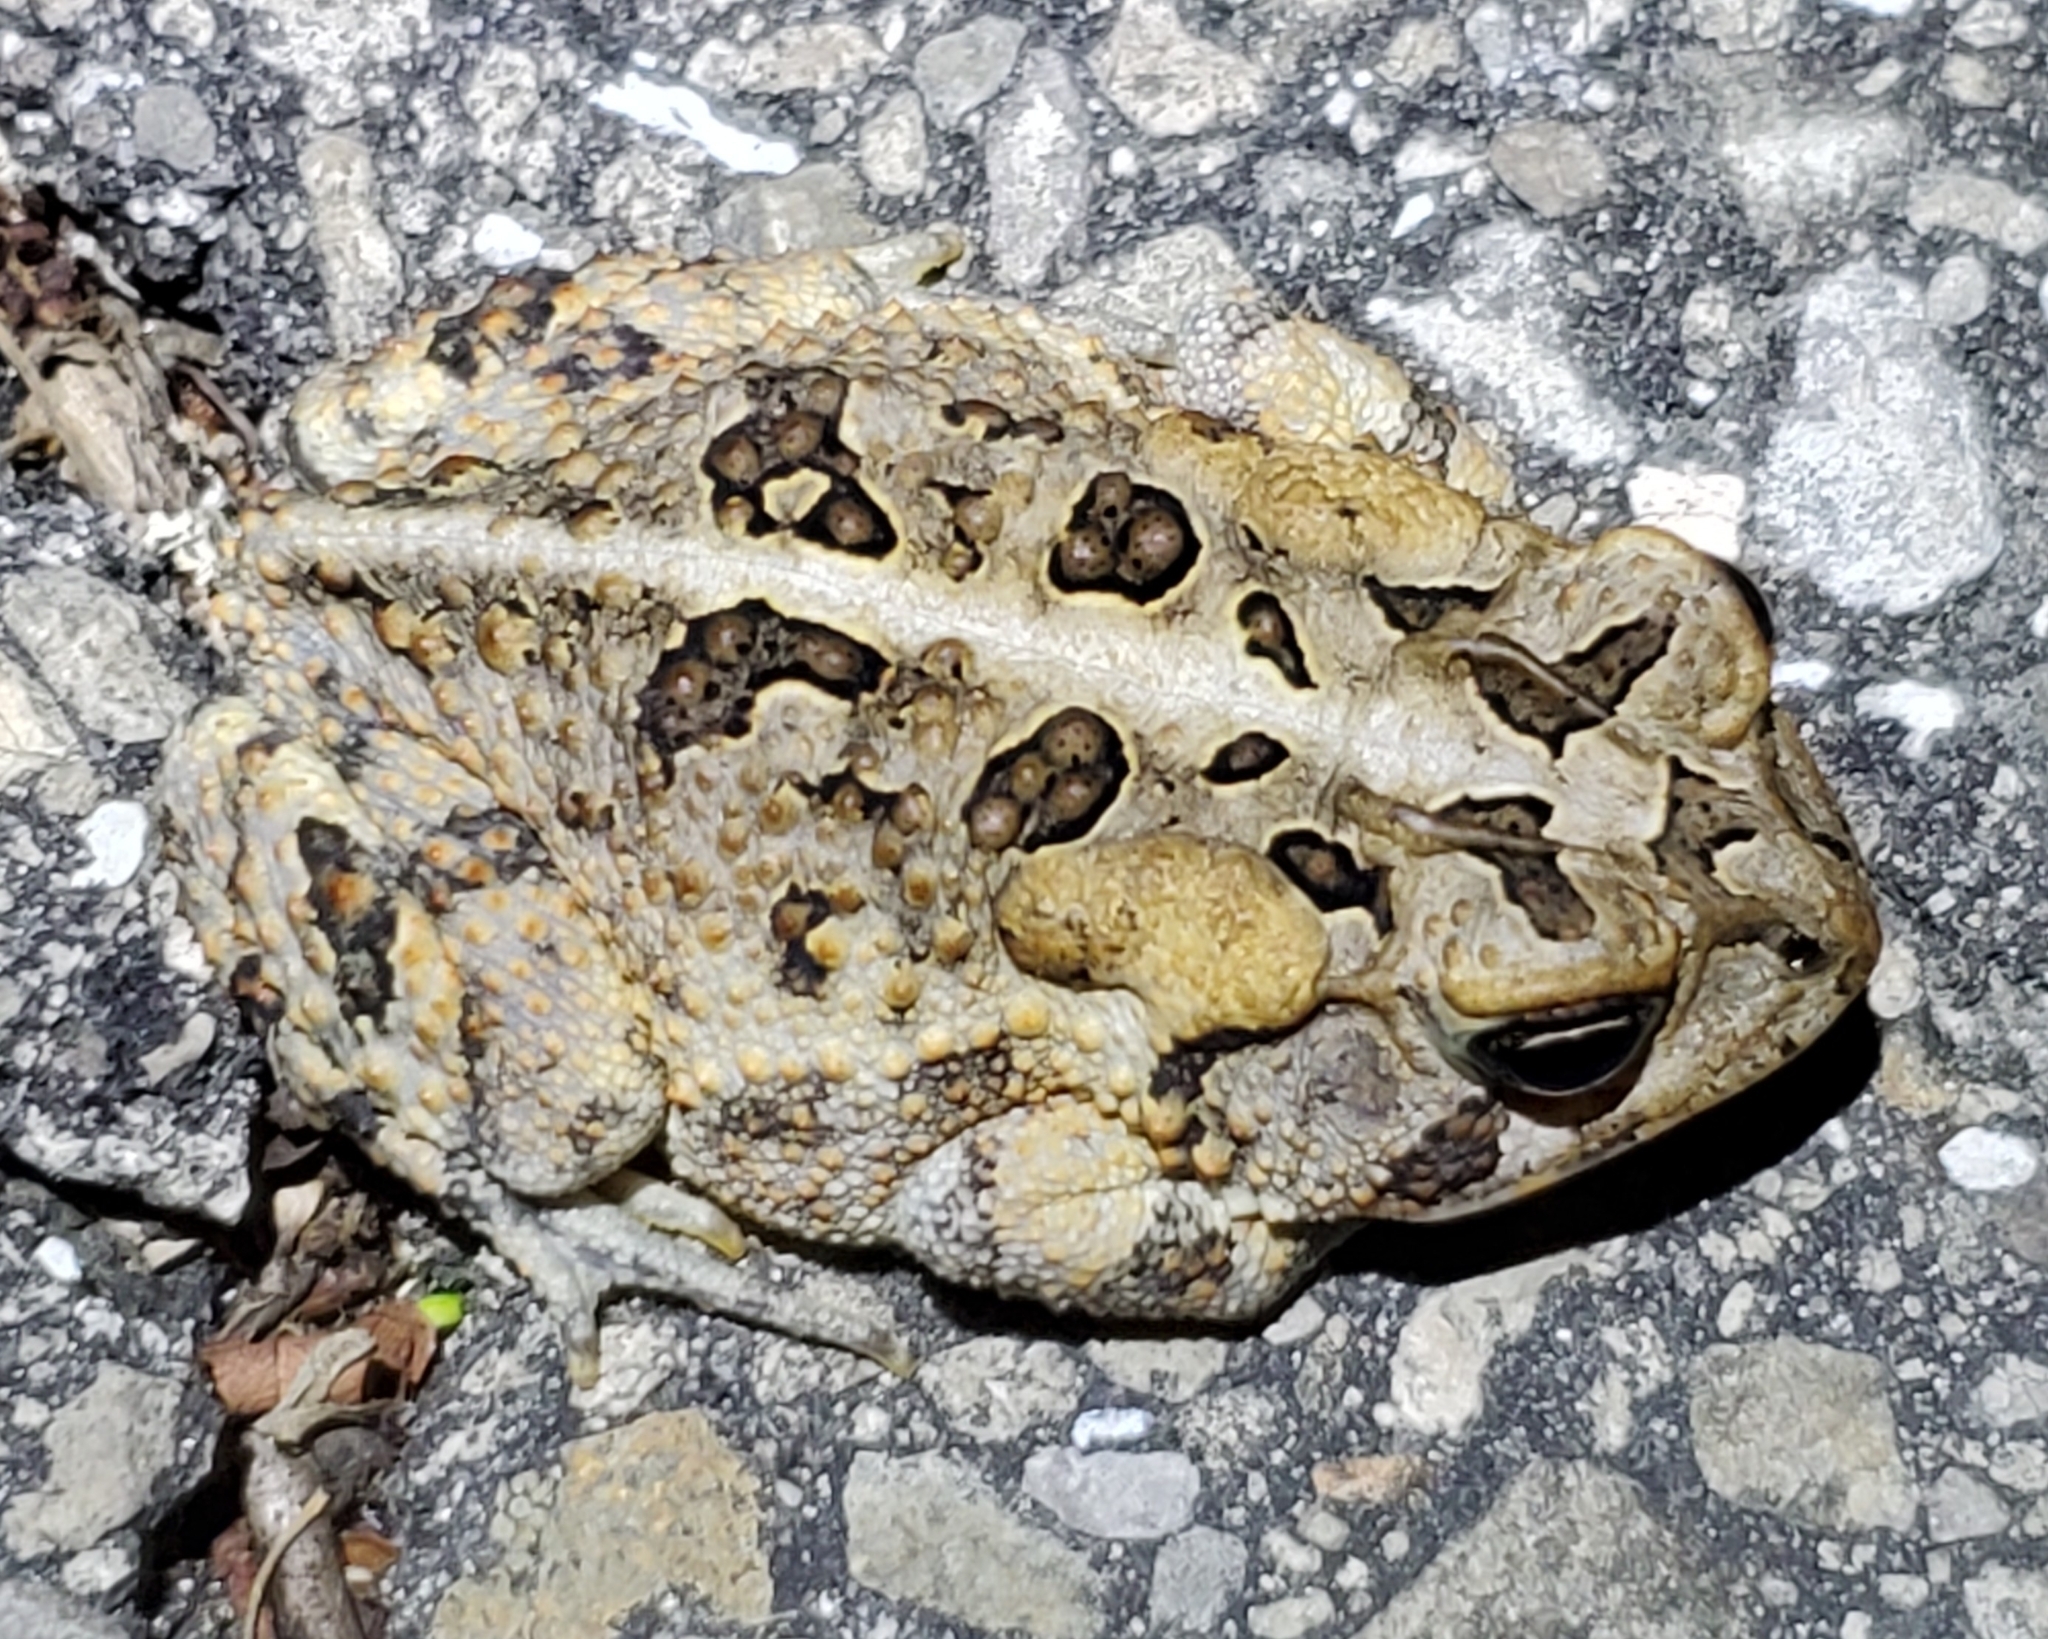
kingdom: Animalia
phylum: Chordata
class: Amphibia
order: Anura
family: Bufonidae
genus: Anaxyrus
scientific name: Anaxyrus terrestris
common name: Southern toad
